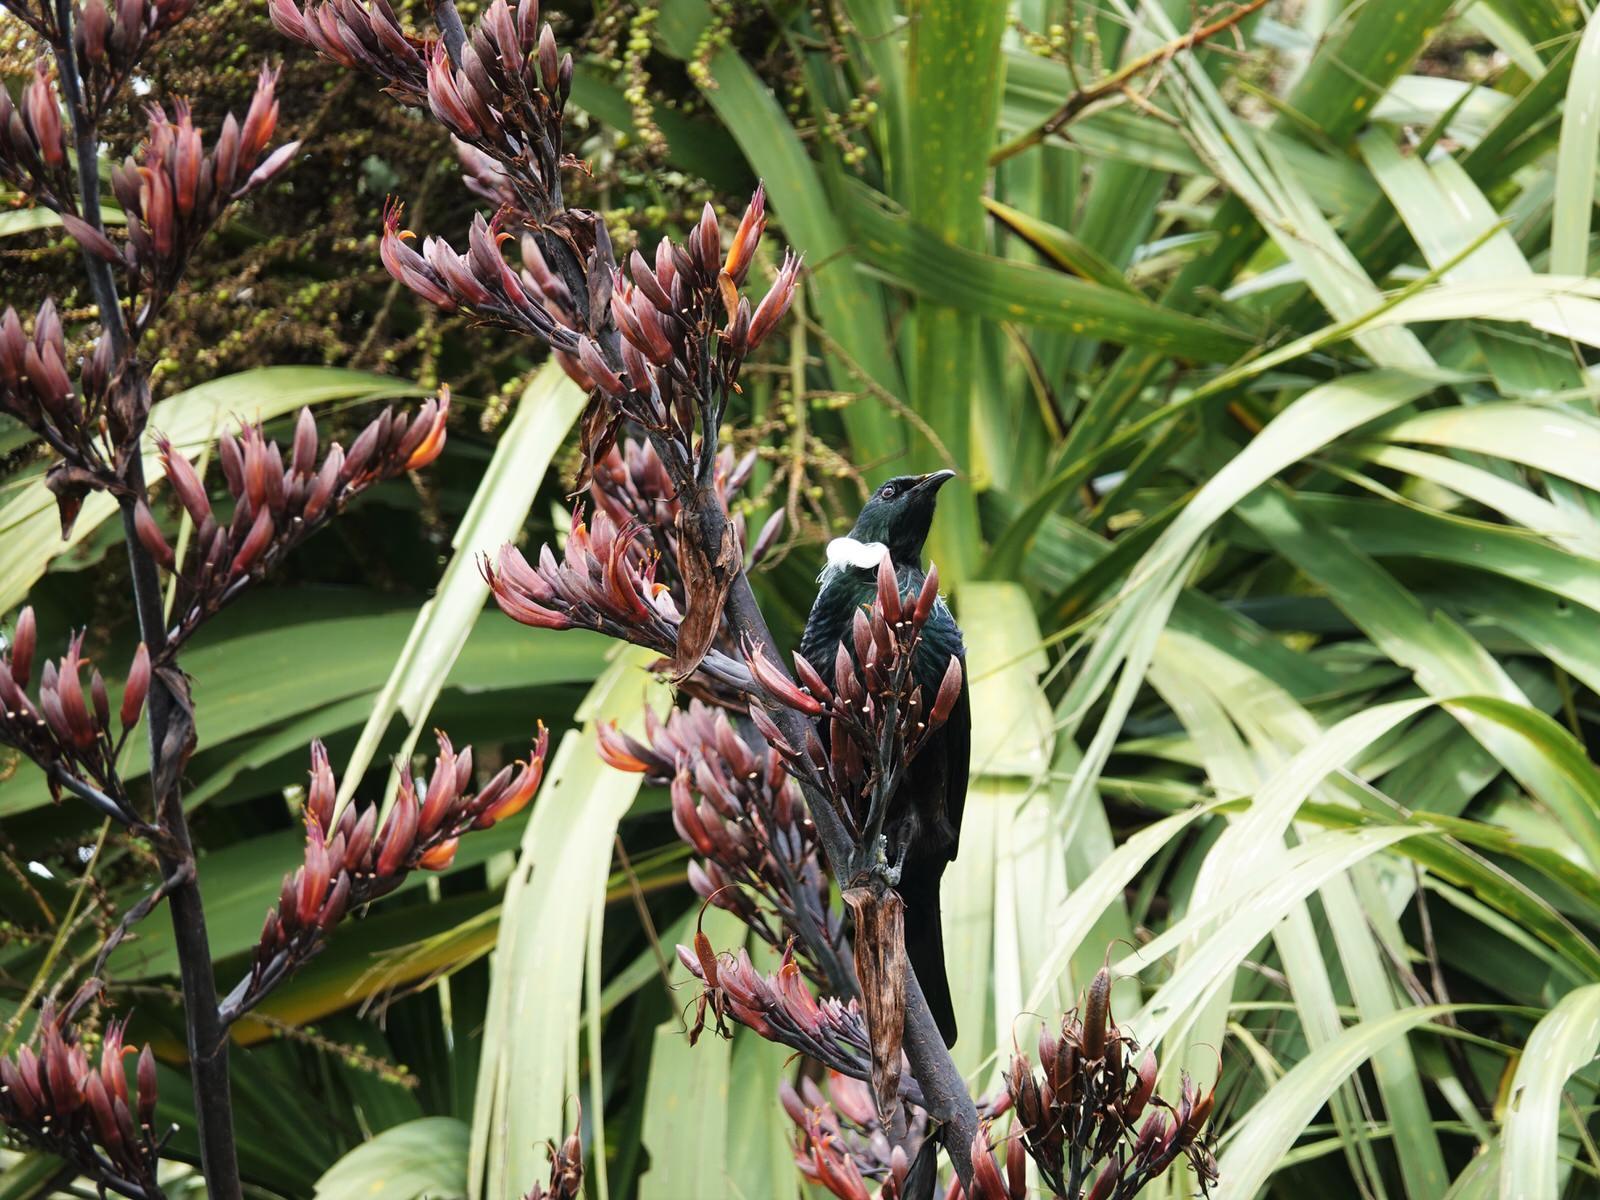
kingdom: Animalia
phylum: Chordata
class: Aves
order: Passeriformes
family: Meliphagidae
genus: Prosthemadera
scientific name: Prosthemadera novaeseelandiae
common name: Tui
